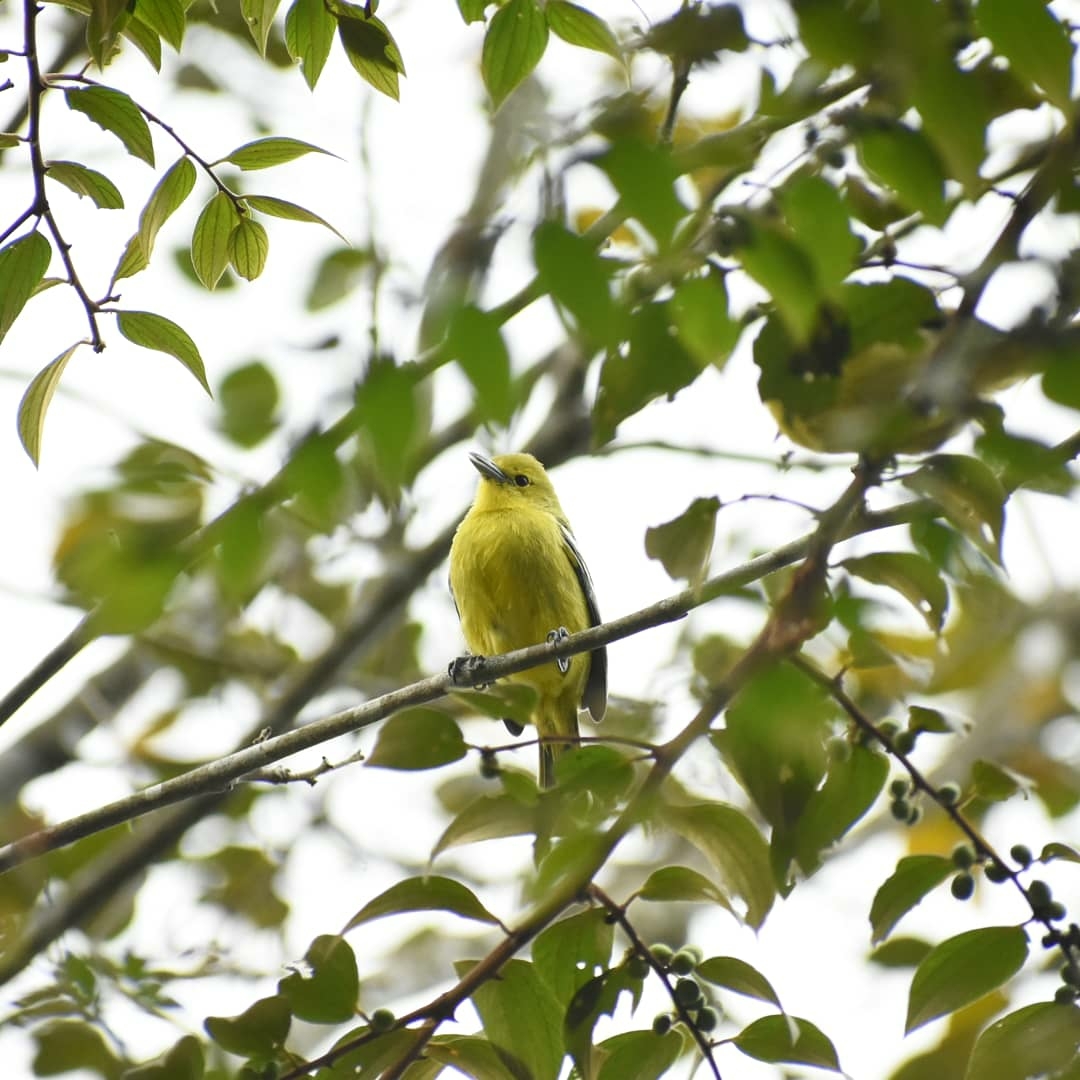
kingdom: Animalia
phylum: Chordata
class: Aves
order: Passeriformes
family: Aegithinidae
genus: Aegithina
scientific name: Aegithina tiphia
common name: Common iora
